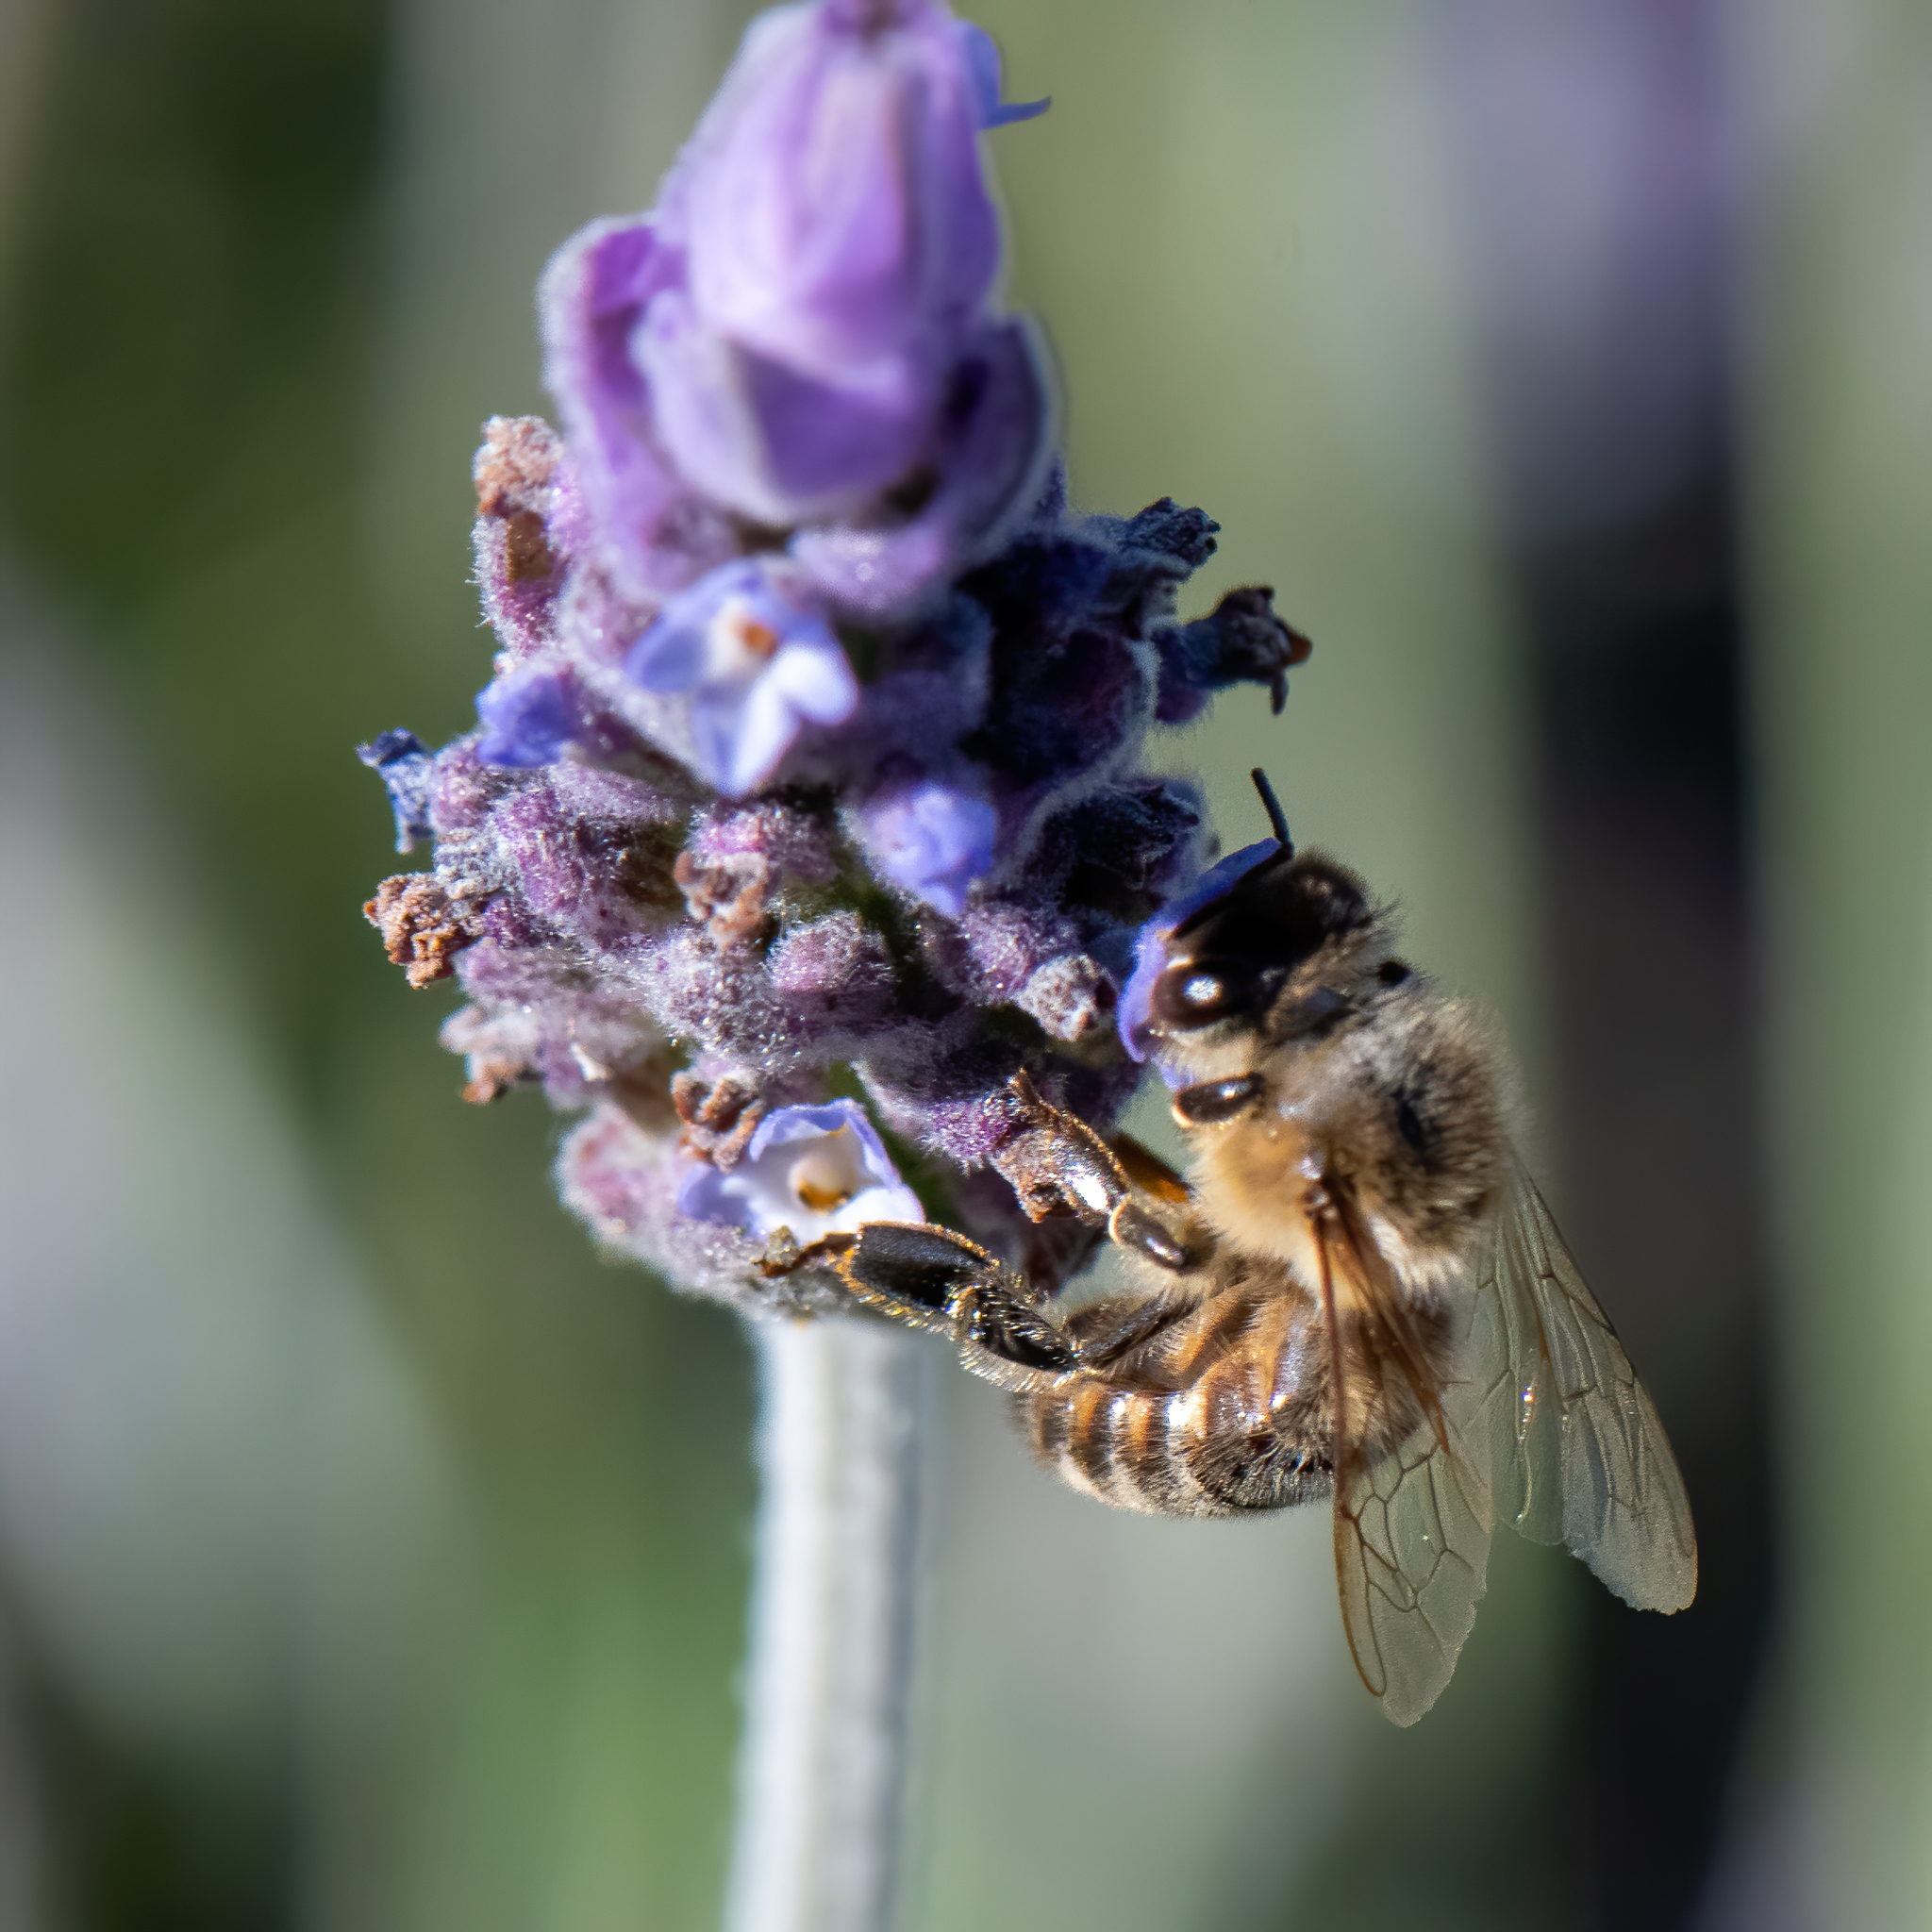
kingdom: Animalia
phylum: Arthropoda
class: Insecta
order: Hymenoptera
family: Apidae
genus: Apis
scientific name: Apis mellifera
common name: Honey bee
